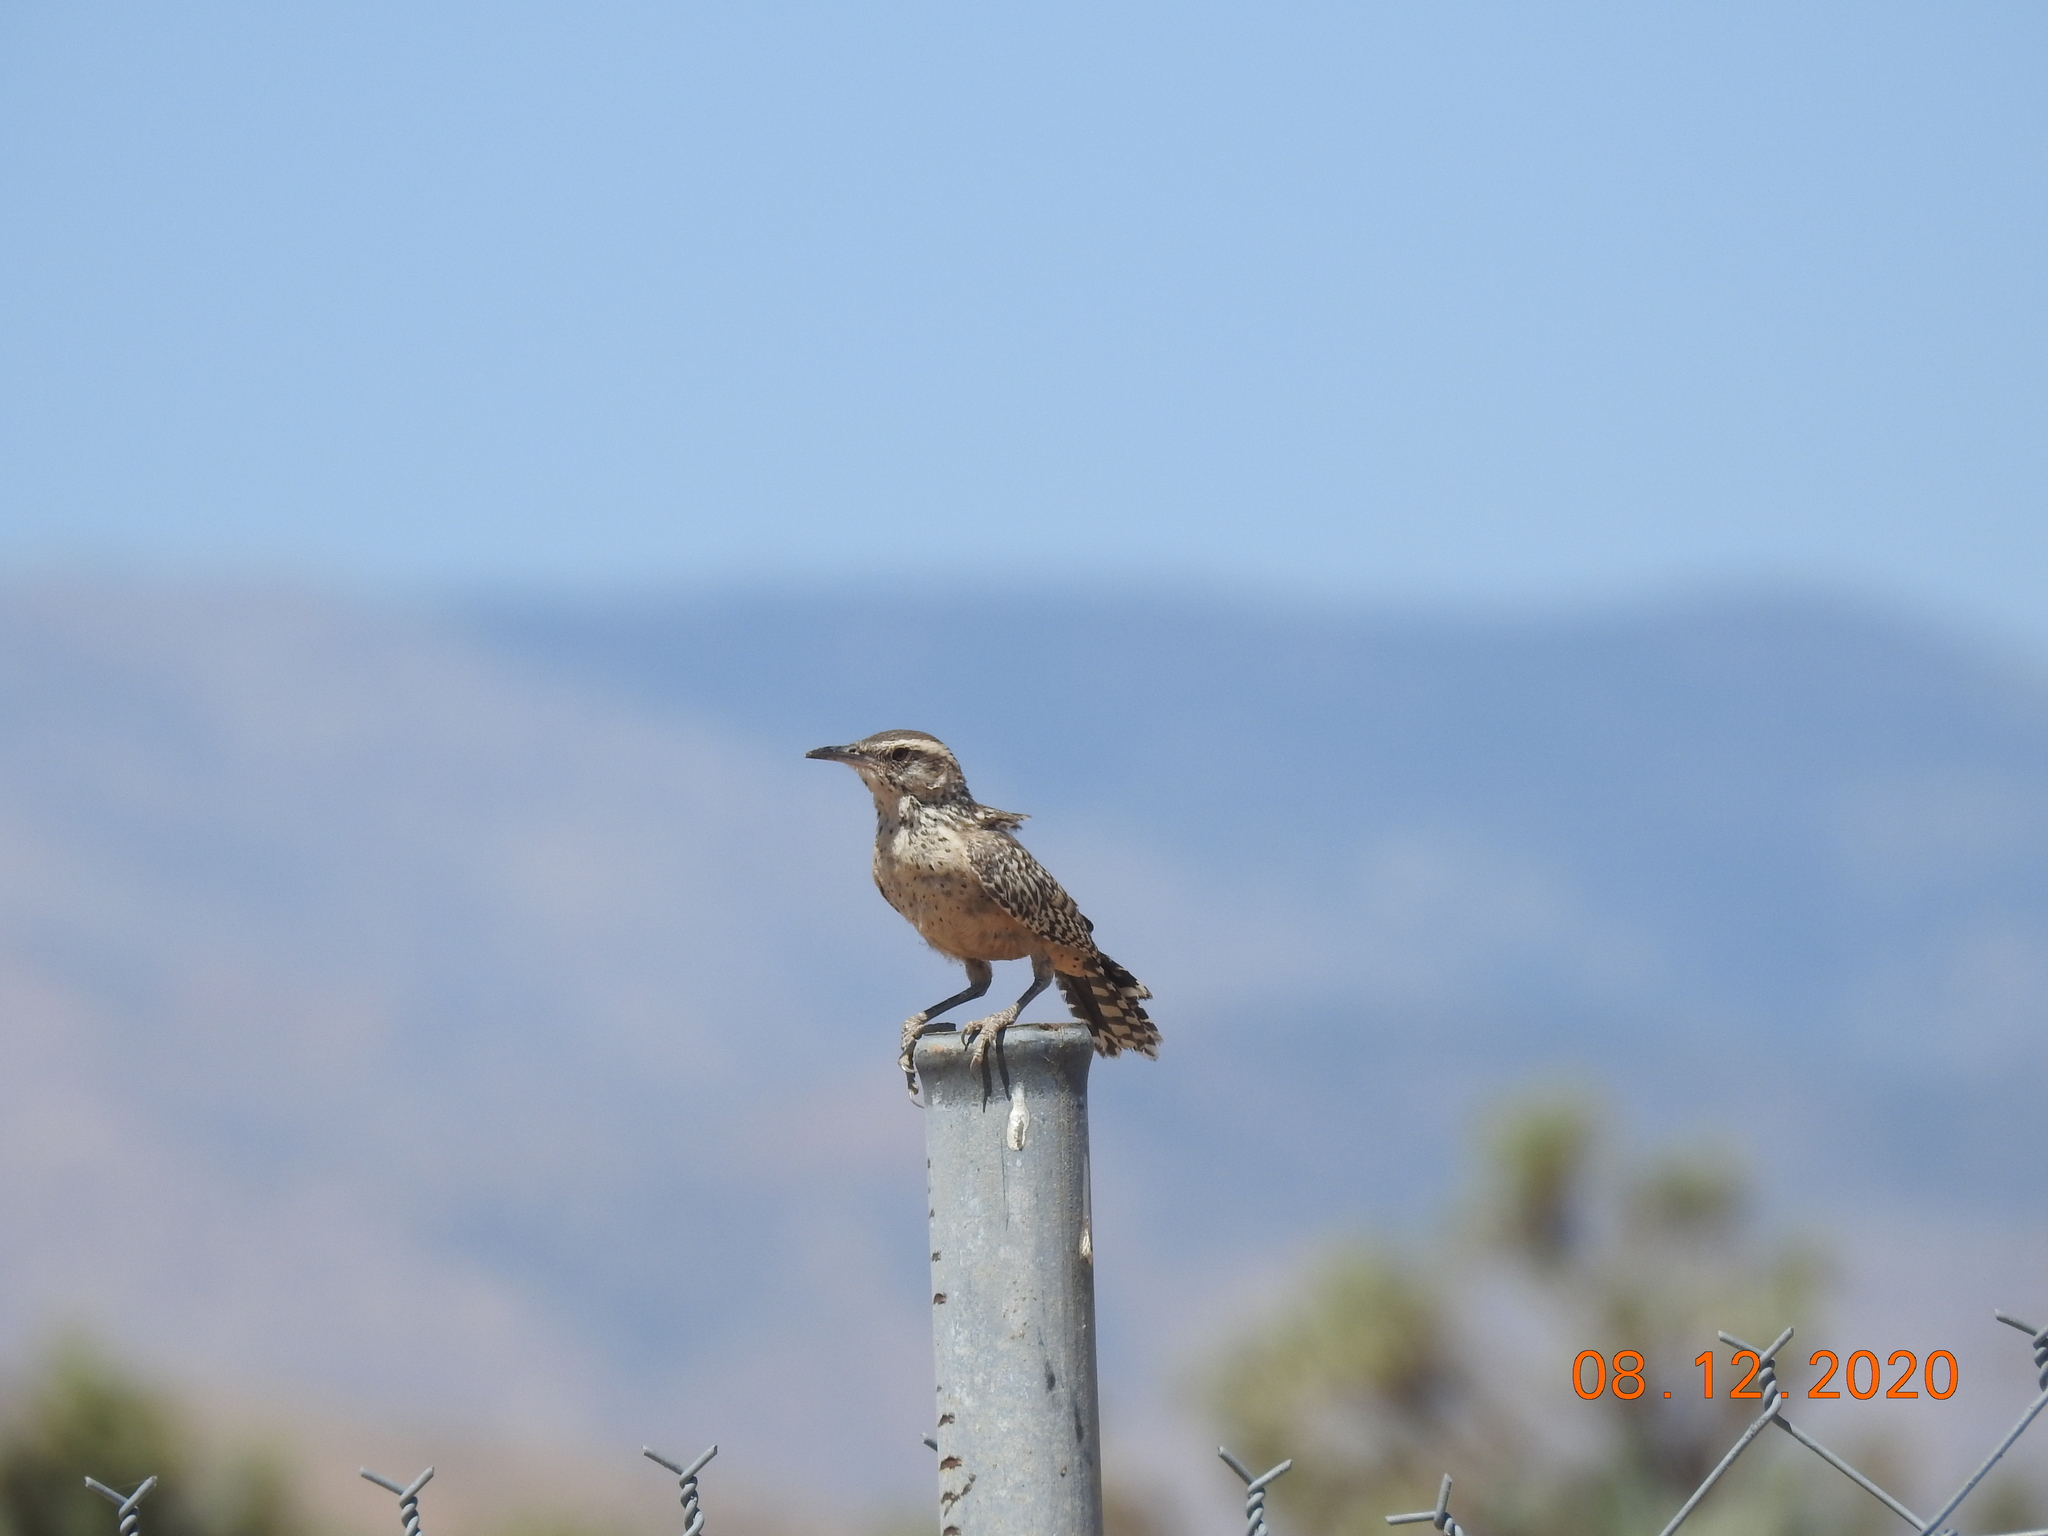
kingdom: Animalia
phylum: Chordata
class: Aves
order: Passeriformes
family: Troglodytidae
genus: Campylorhynchus
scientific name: Campylorhynchus brunneicapillus
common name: Cactus wren
